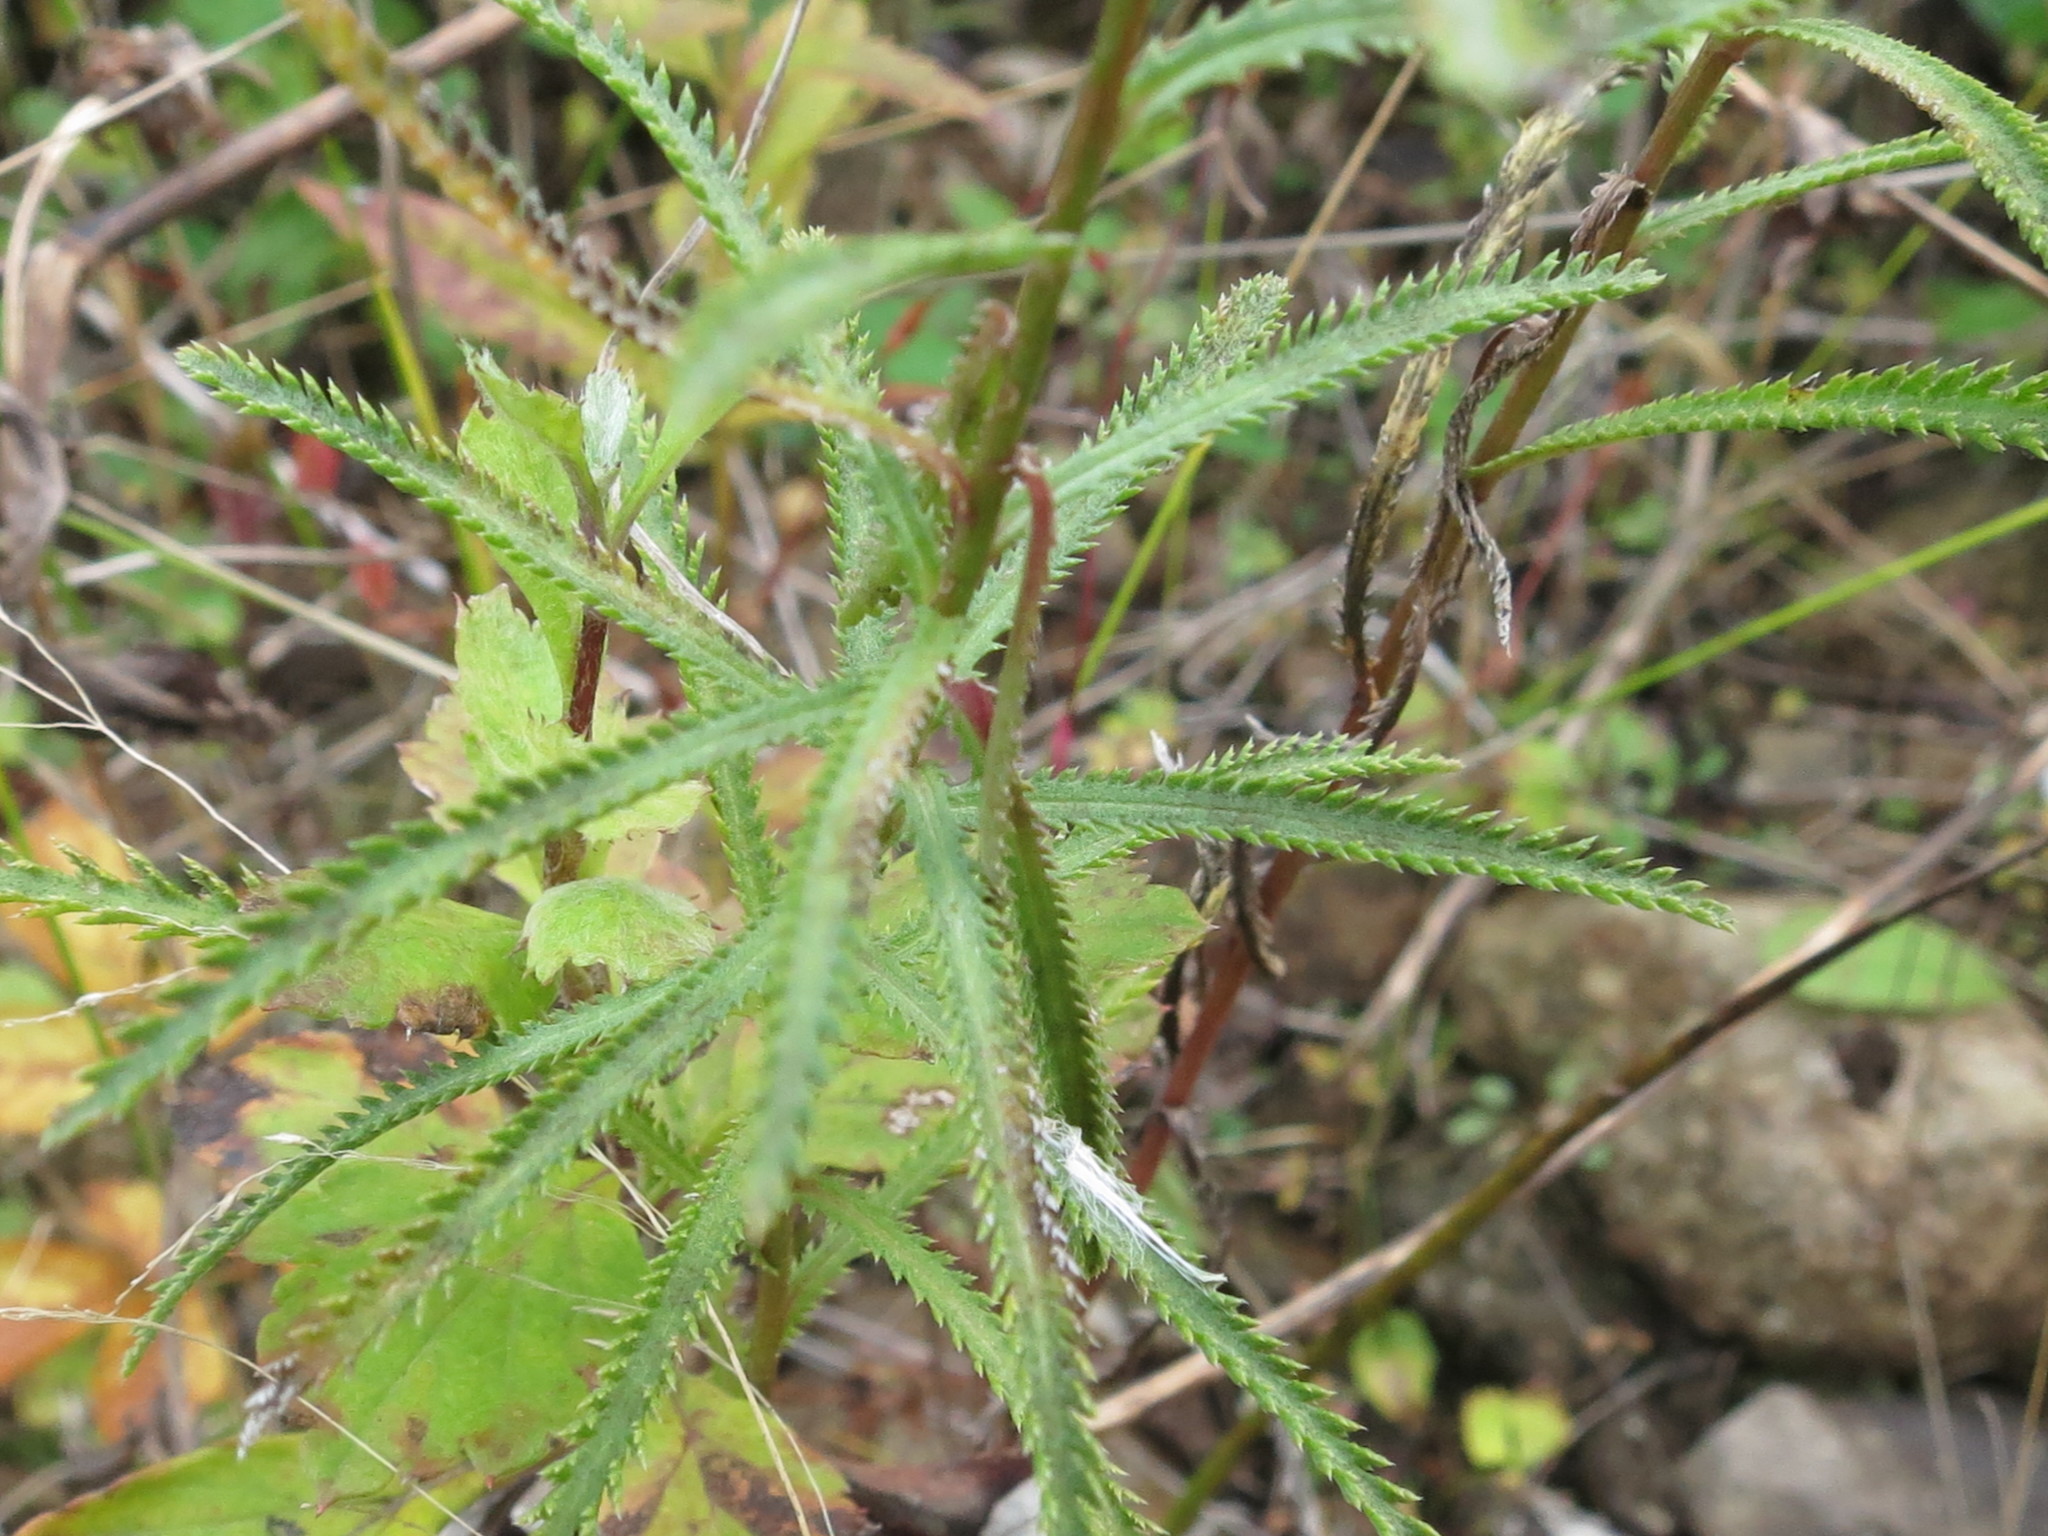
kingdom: Plantae
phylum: Tracheophyta
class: Magnoliopsida
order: Asterales
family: Asteraceae
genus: Achillea
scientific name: Achillea ptarmicoides
